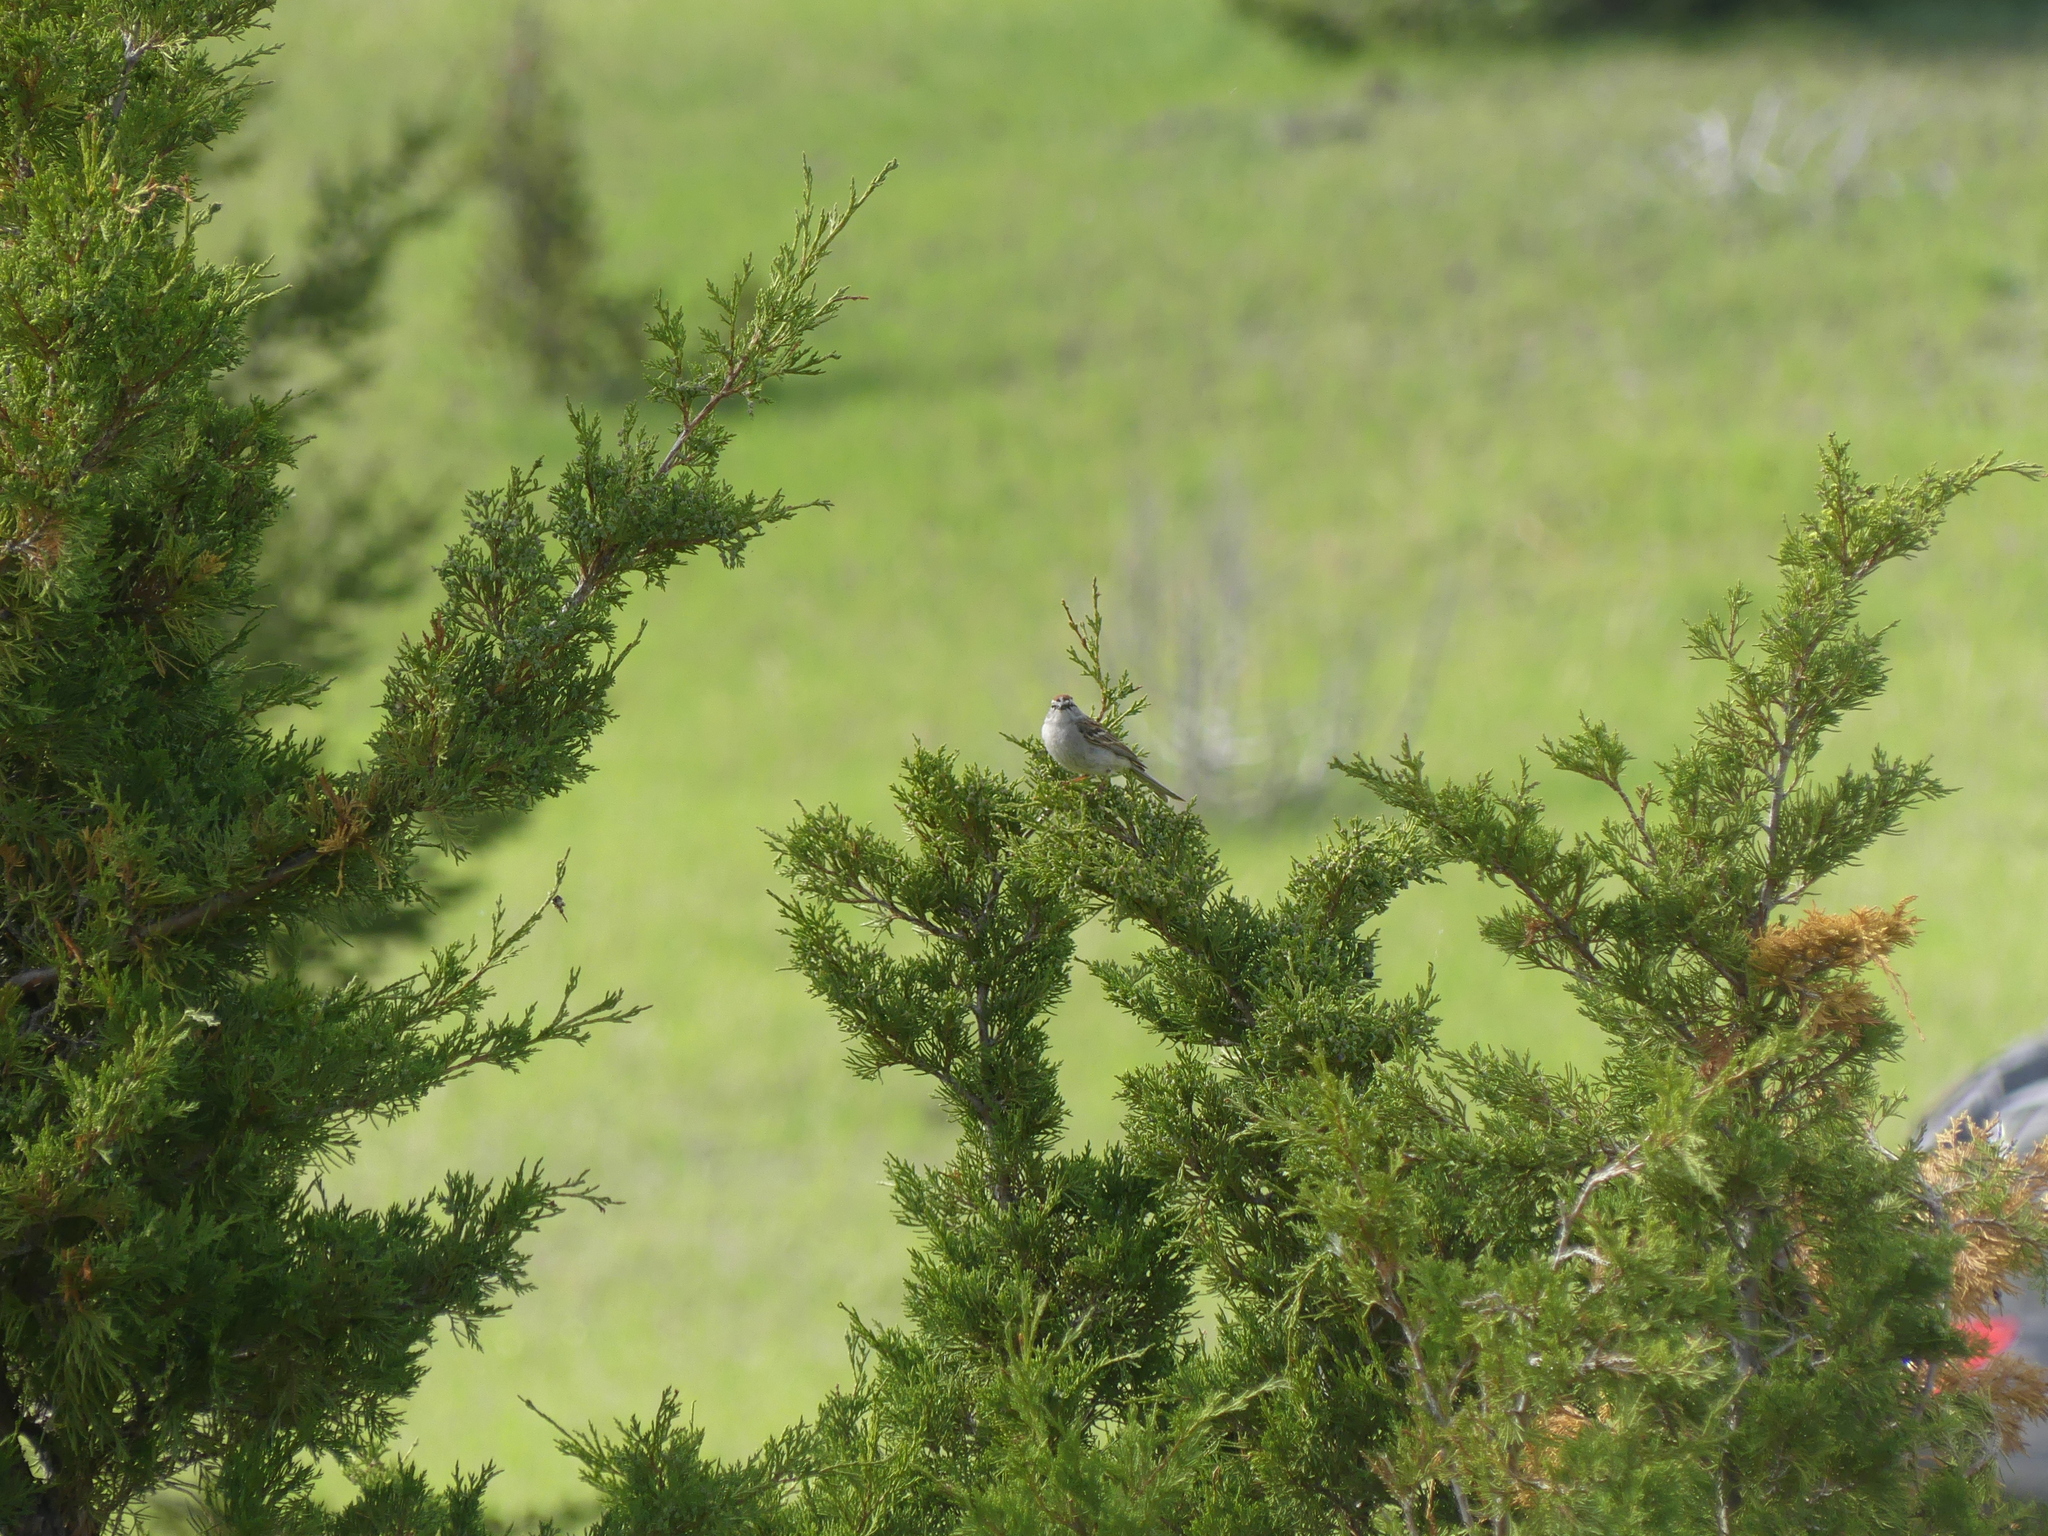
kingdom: Animalia
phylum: Chordata
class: Aves
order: Passeriformes
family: Passerellidae
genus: Spizella
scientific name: Spizella passerina
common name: Chipping sparrow
